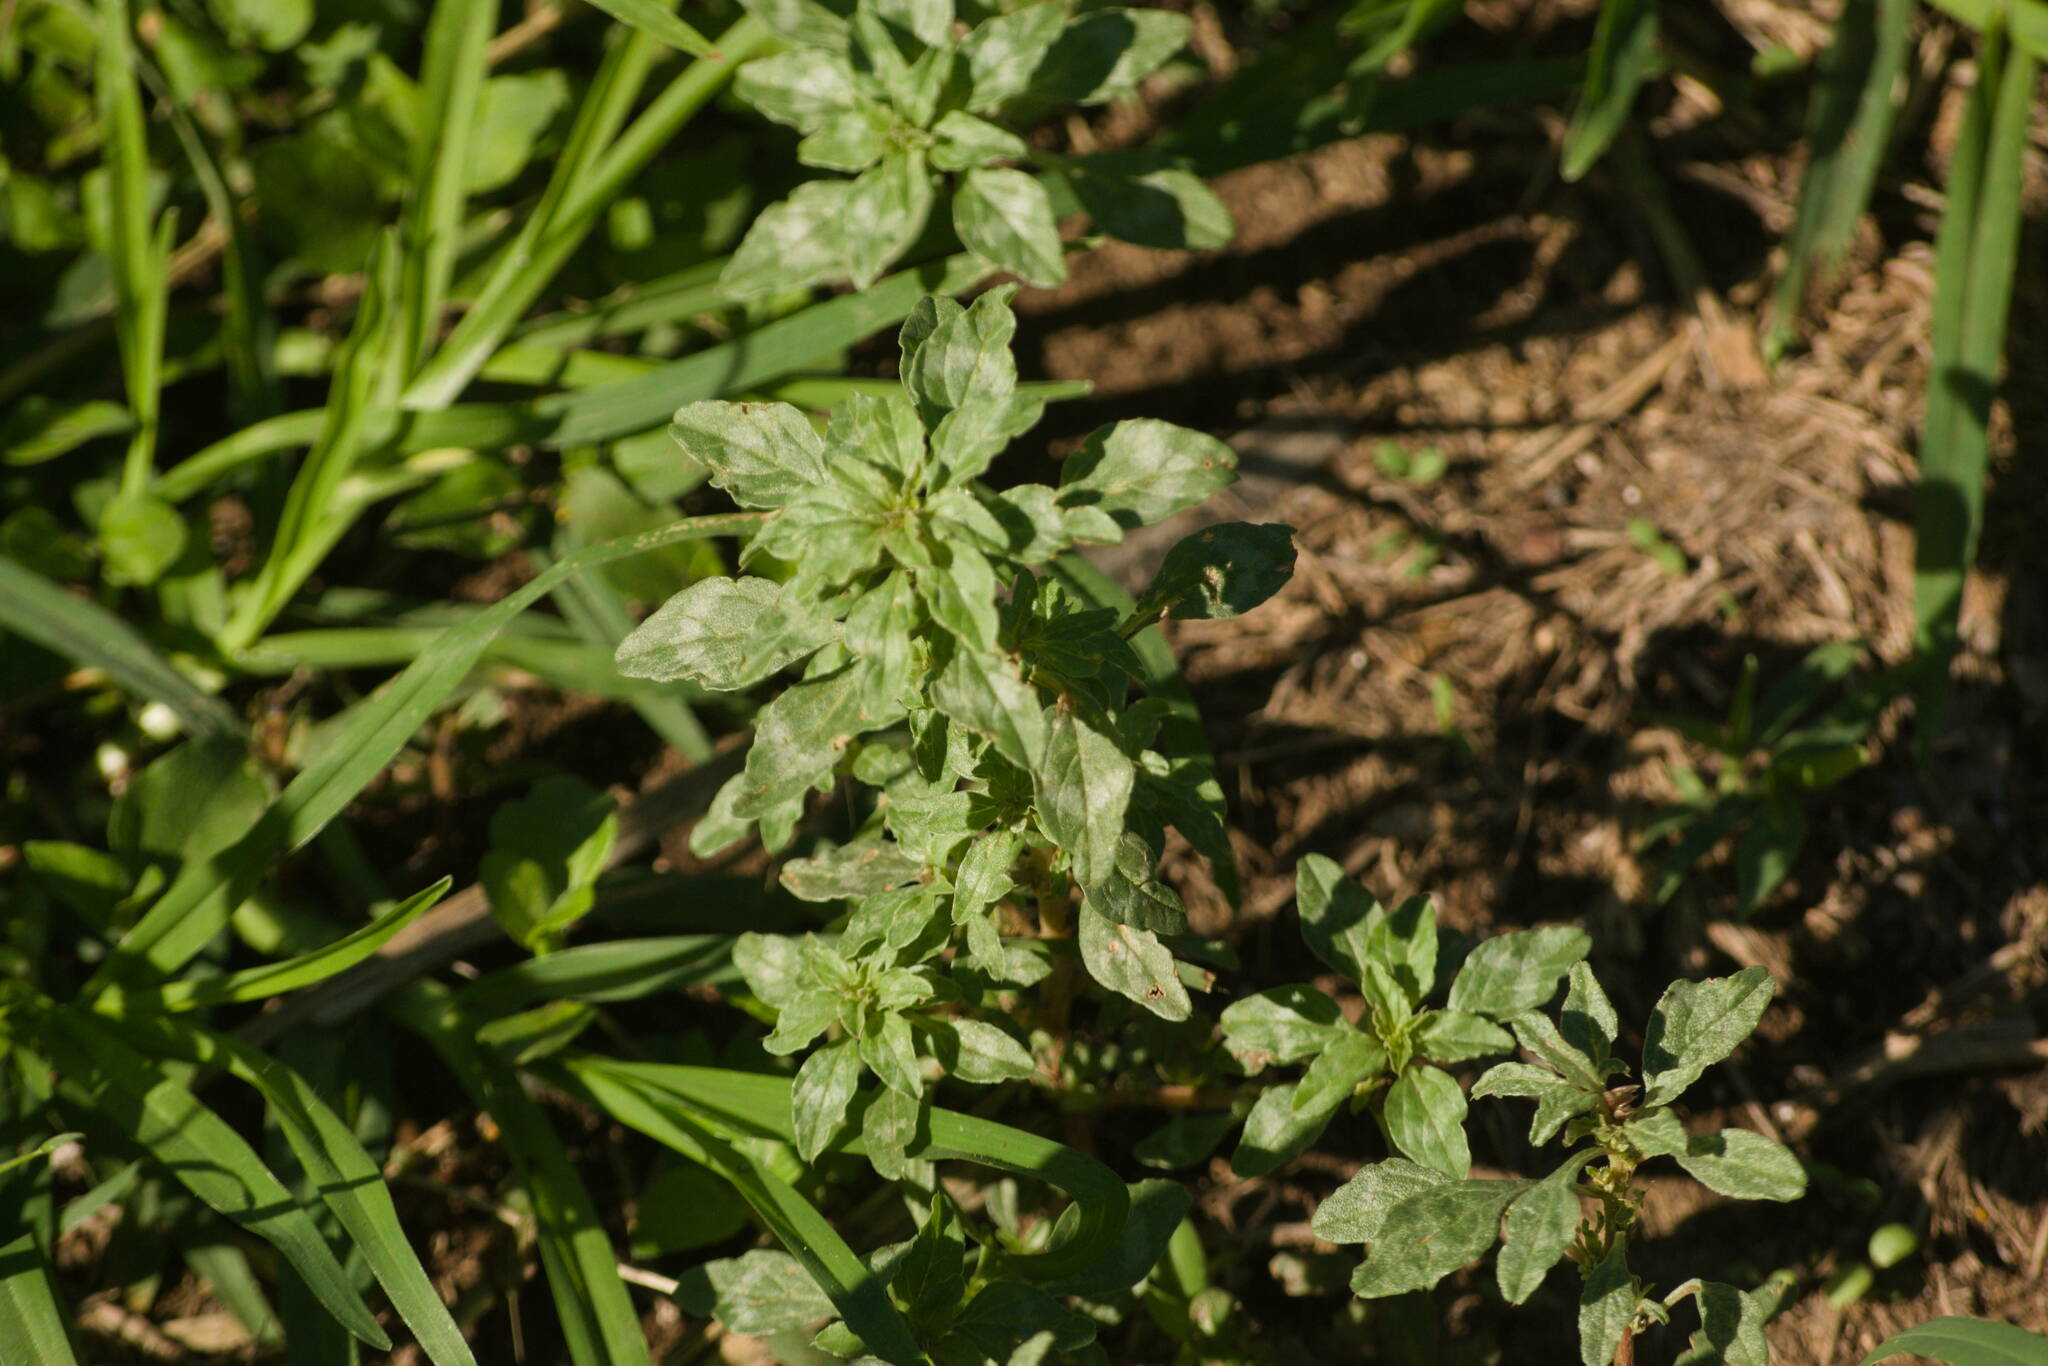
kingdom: Plantae
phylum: Tracheophyta
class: Magnoliopsida
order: Caryophyllales
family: Amaranthaceae
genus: Amaranthus
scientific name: Amaranthus polygonoides
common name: Tropical amaranth
